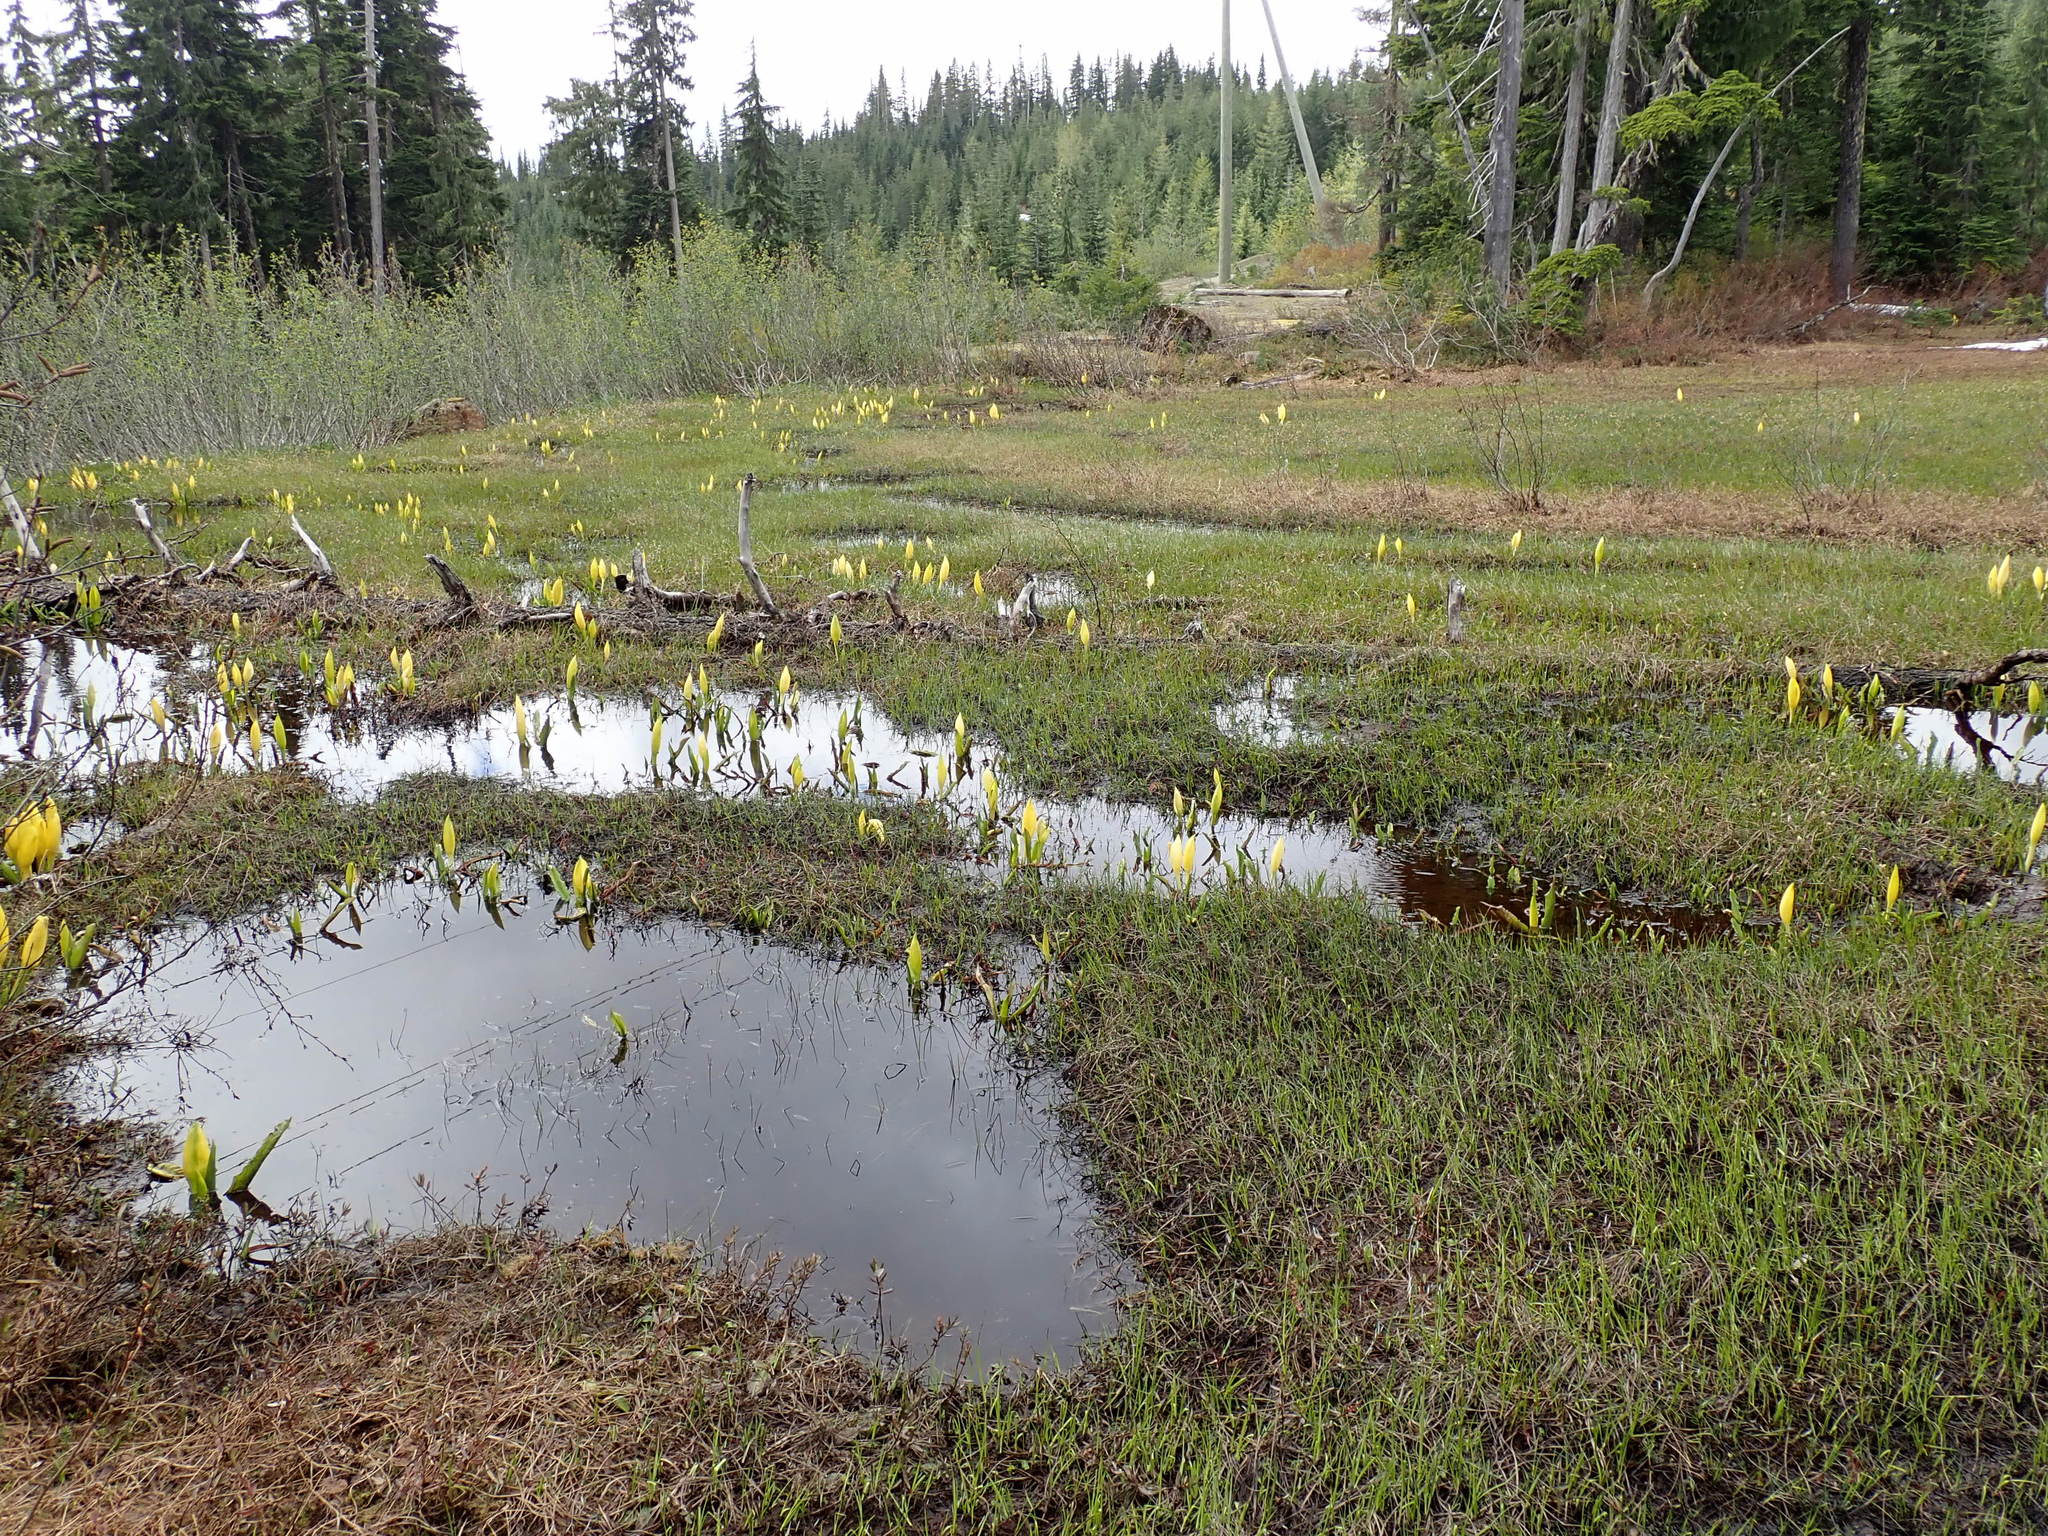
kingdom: Plantae
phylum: Tracheophyta
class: Liliopsida
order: Alismatales
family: Araceae
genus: Lysichiton
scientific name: Lysichiton americanus
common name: American skunk cabbage
